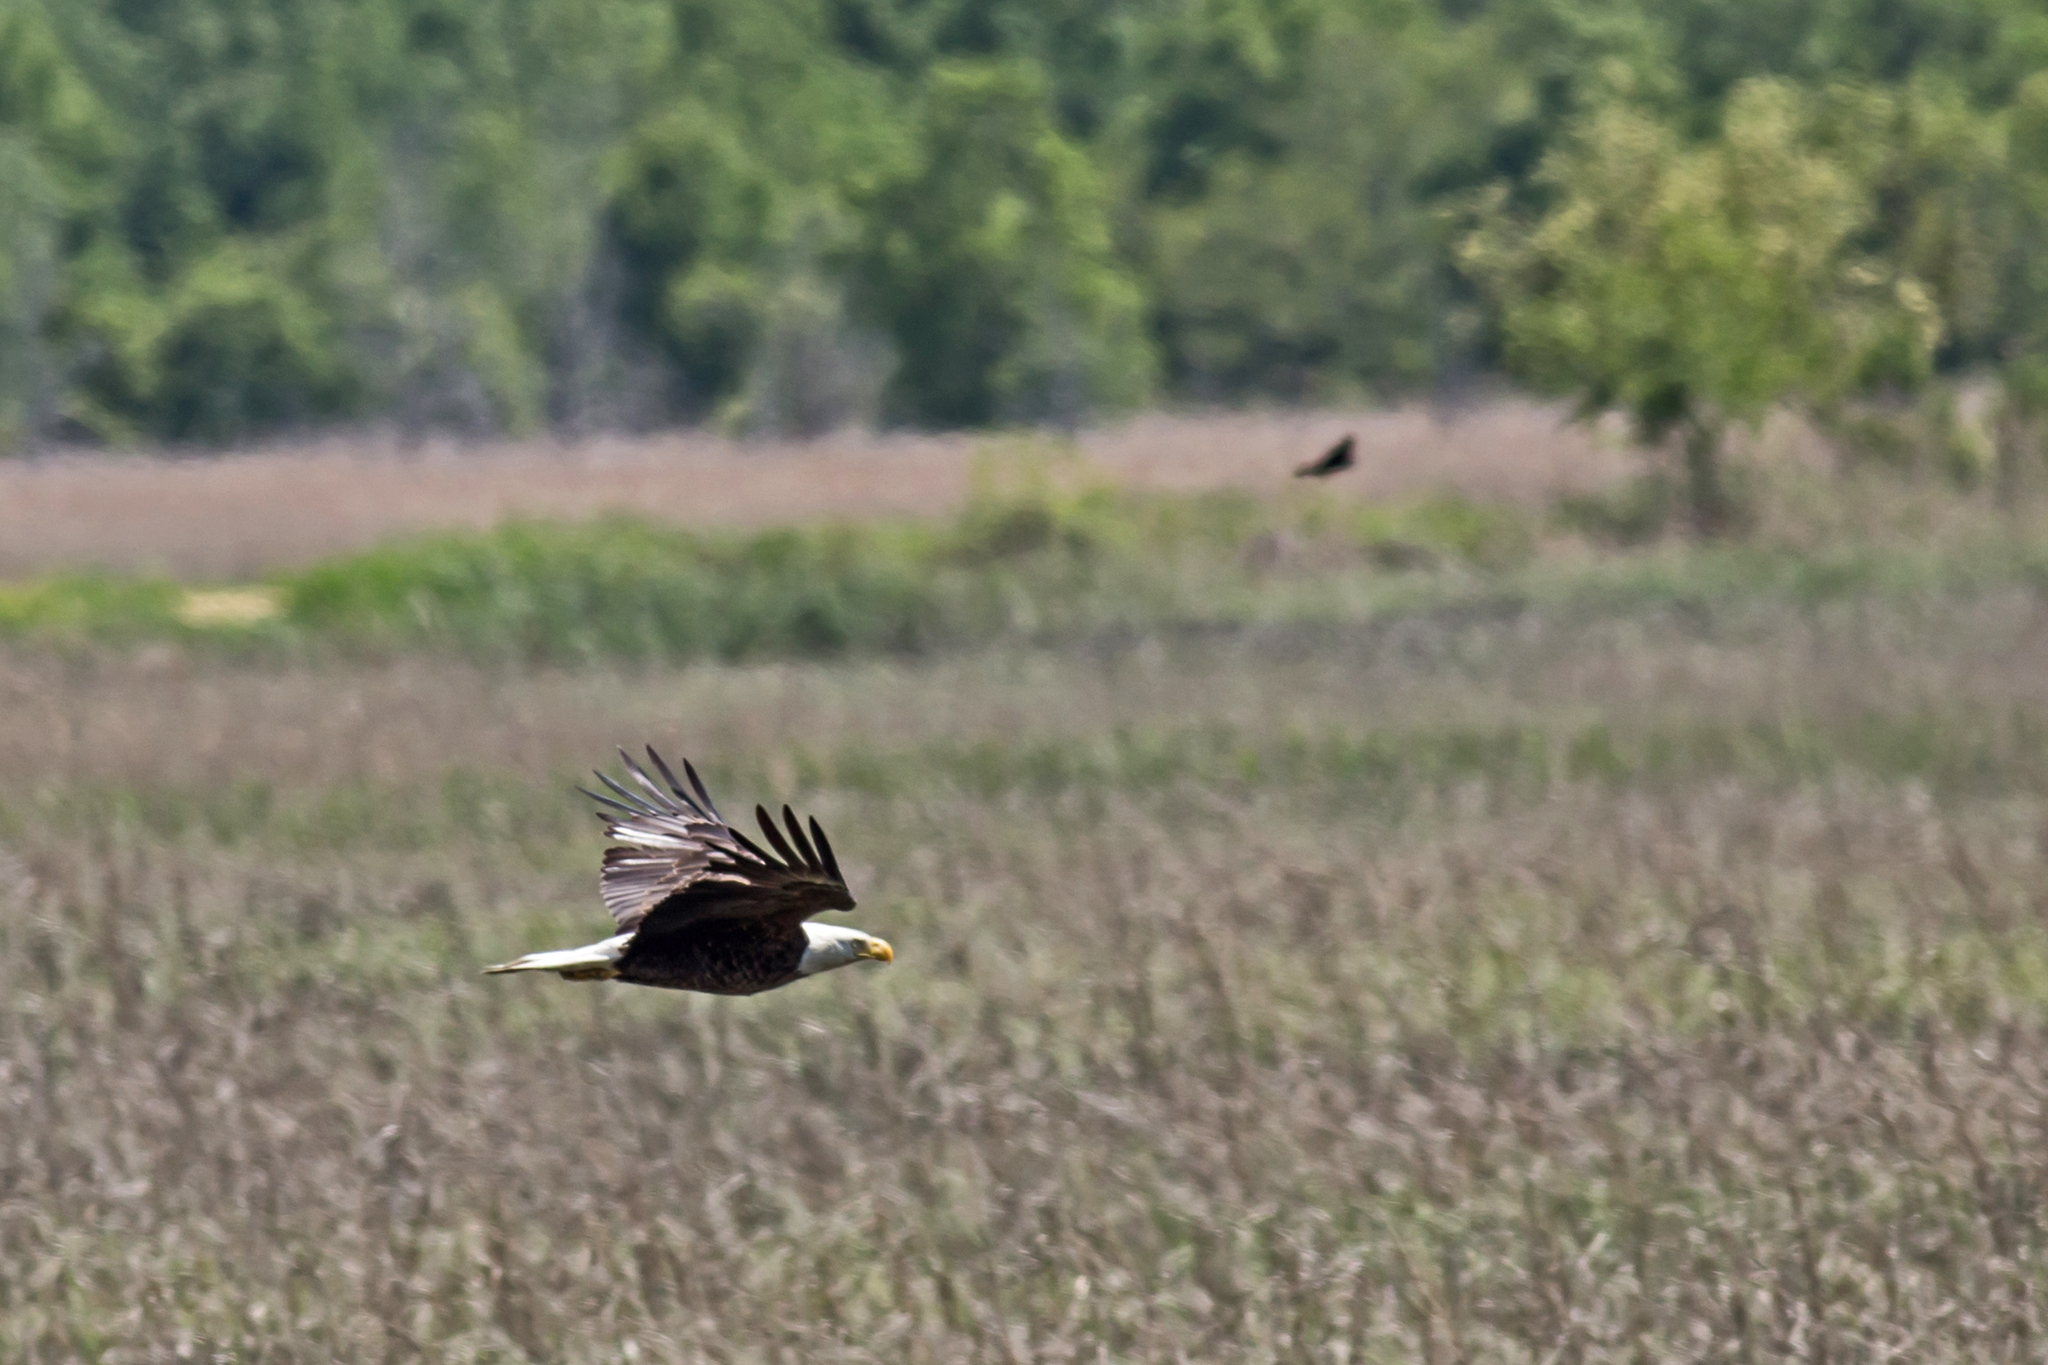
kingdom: Animalia
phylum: Chordata
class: Aves
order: Accipitriformes
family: Accipitridae
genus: Haliaeetus
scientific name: Haliaeetus leucocephalus
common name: Bald eagle
